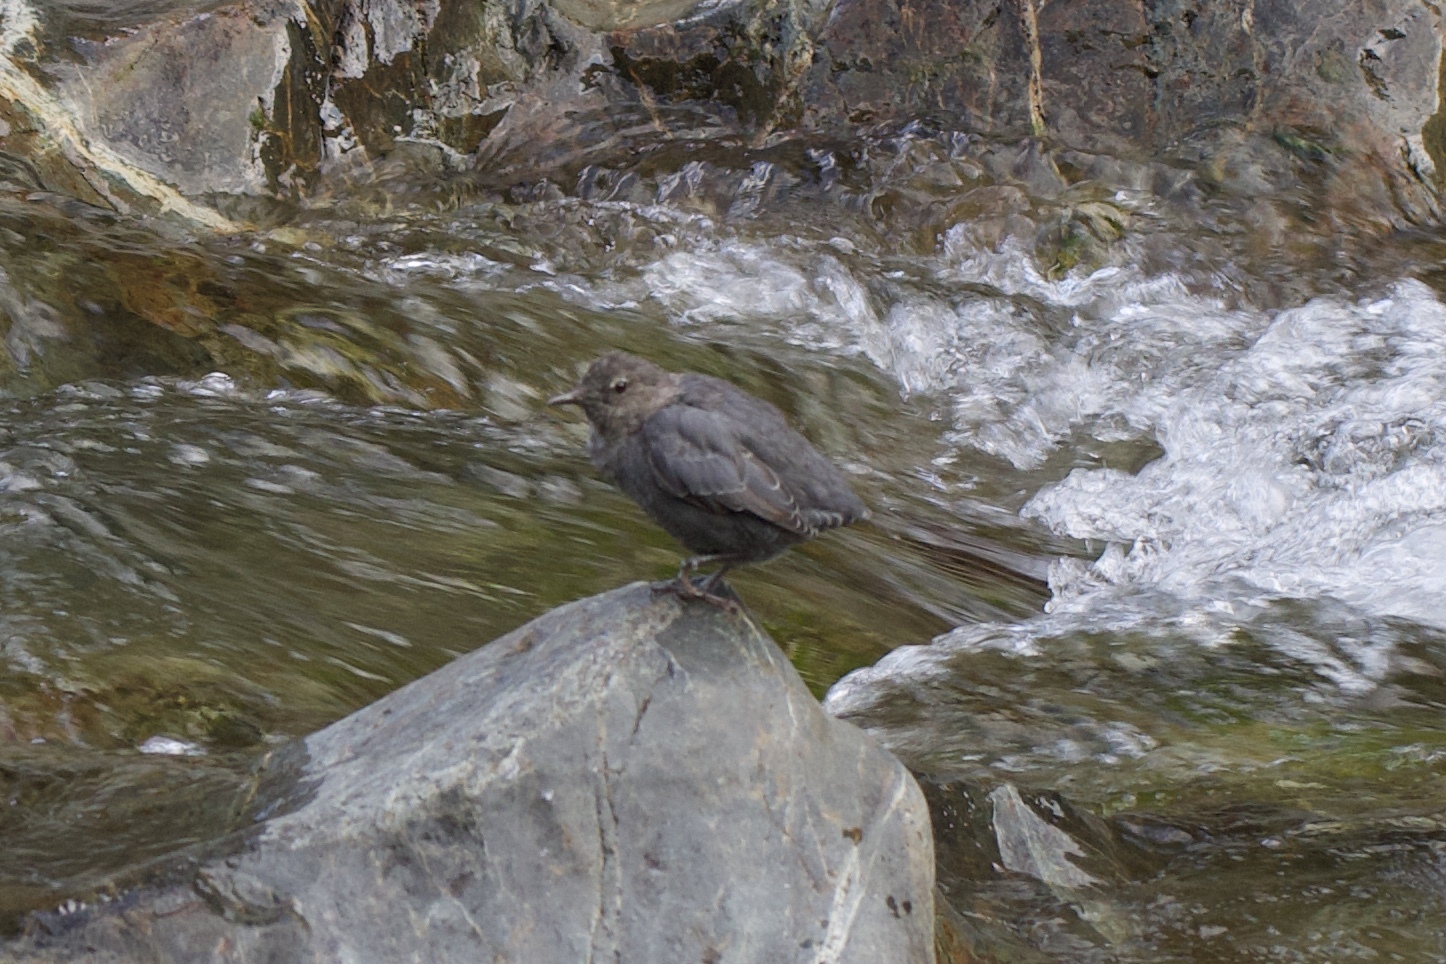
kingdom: Animalia
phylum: Chordata
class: Aves
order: Passeriformes
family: Cinclidae
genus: Cinclus
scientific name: Cinclus mexicanus
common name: American dipper
